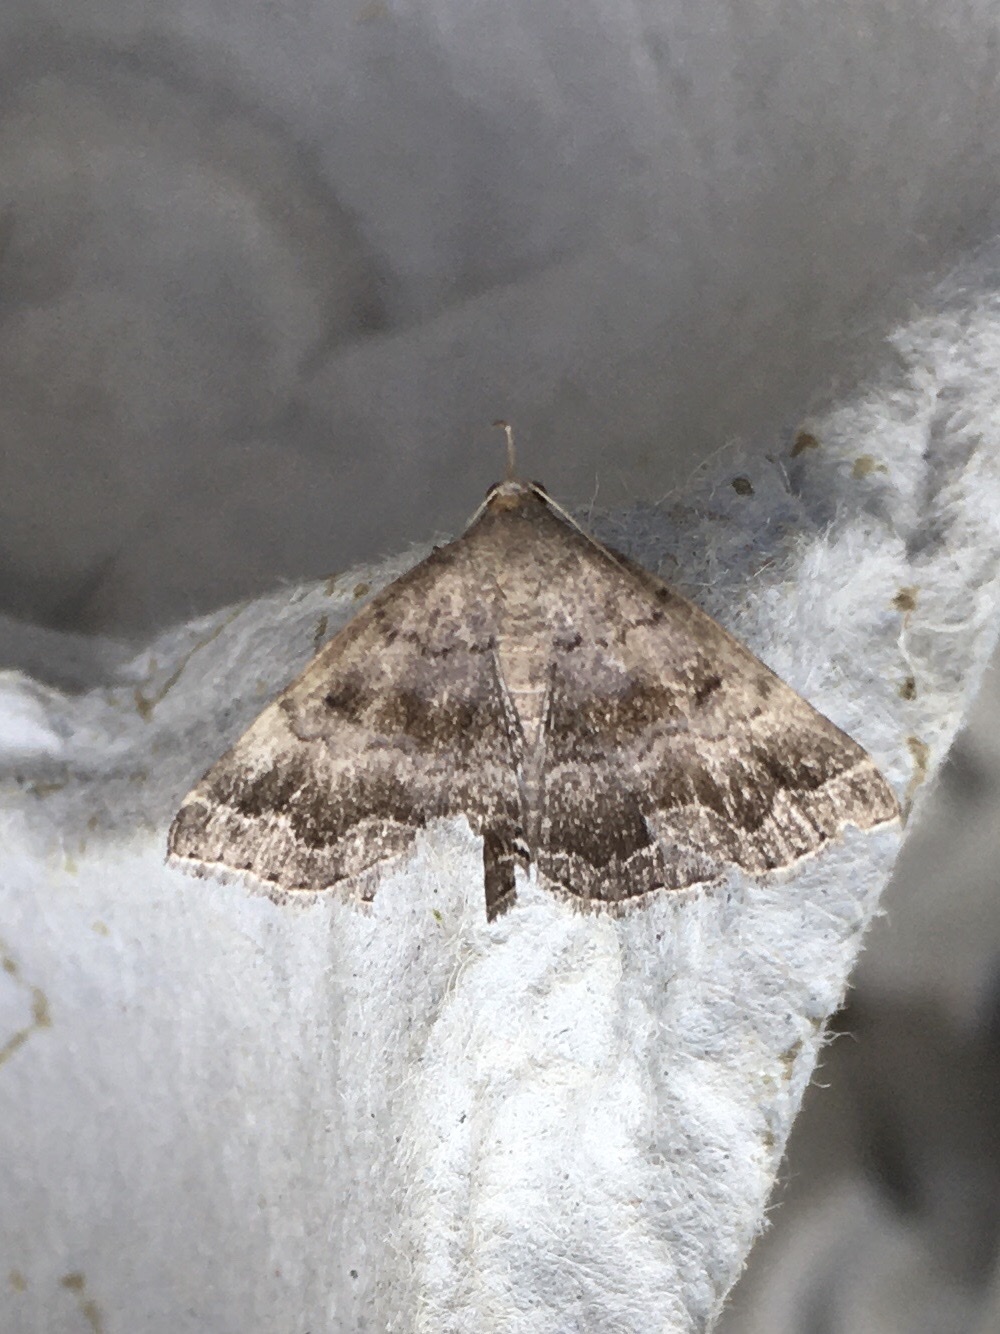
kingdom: Animalia
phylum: Arthropoda
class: Insecta
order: Lepidoptera
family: Erebidae
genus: Phalaenostola
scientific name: Phalaenostola larentioides
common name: Black-banded owlet
